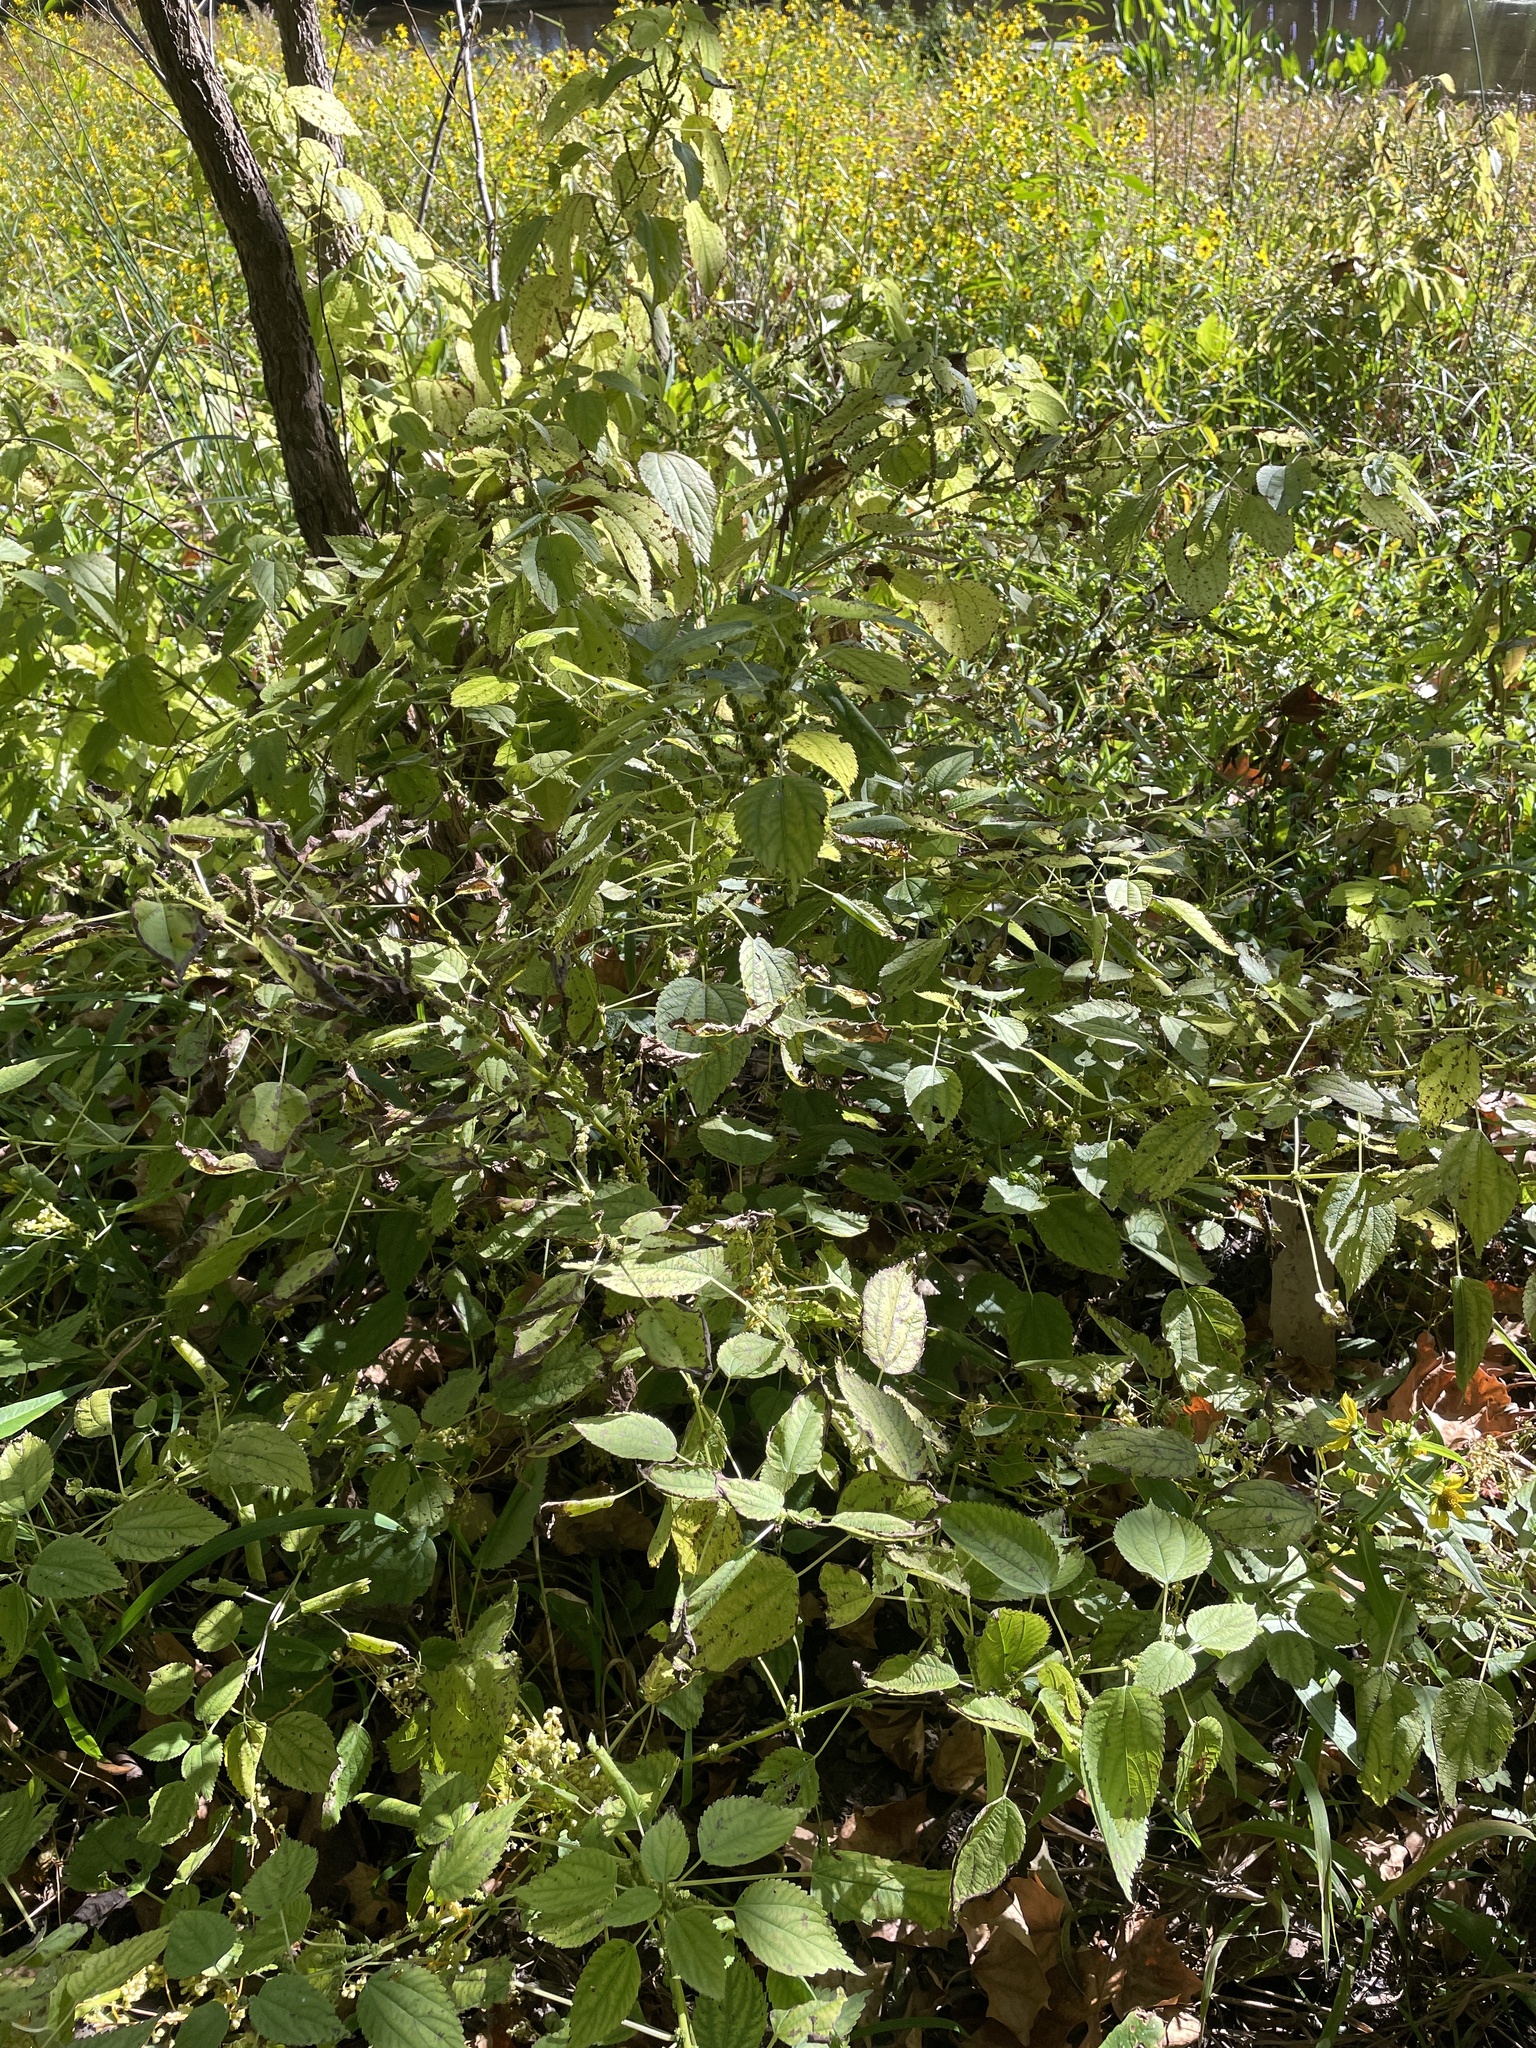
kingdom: Plantae
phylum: Tracheophyta
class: Magnoliopsida
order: Rosales
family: Urticaceae
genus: Boehmeria
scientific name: Boehmeria cylindrica
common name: Bog-hemp
